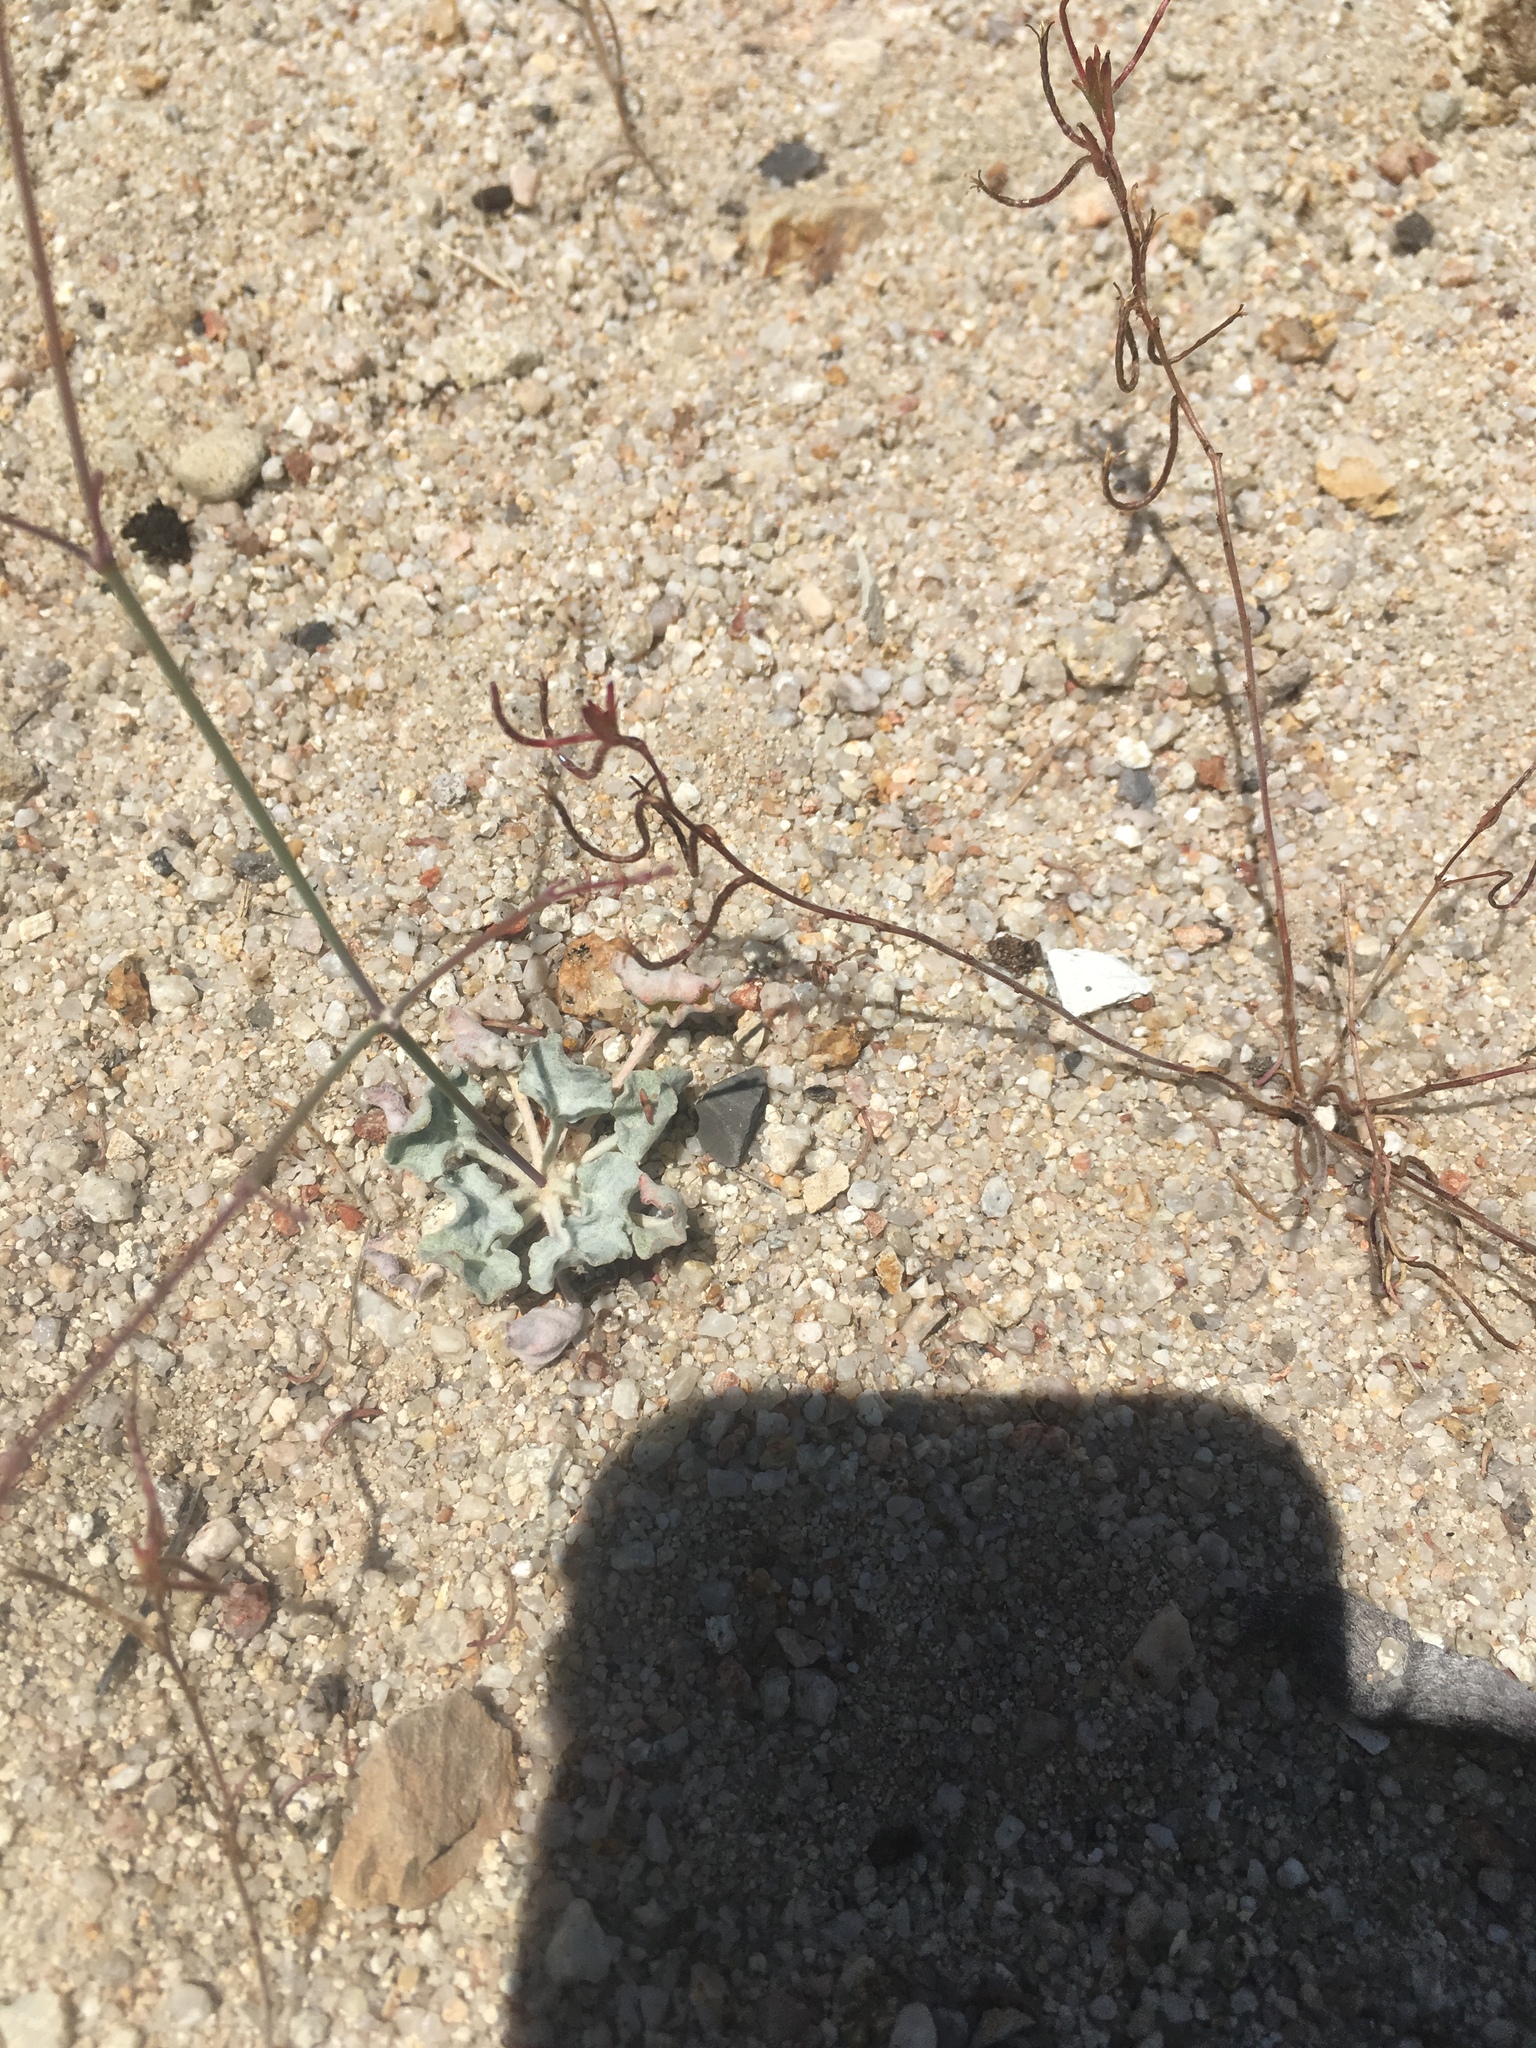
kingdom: Plantae
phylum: Tracheophyta
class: Magnoliopsida
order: Caryophyllales
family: Polygonaceae
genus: Eriogonum
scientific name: Eriogonum elegans
